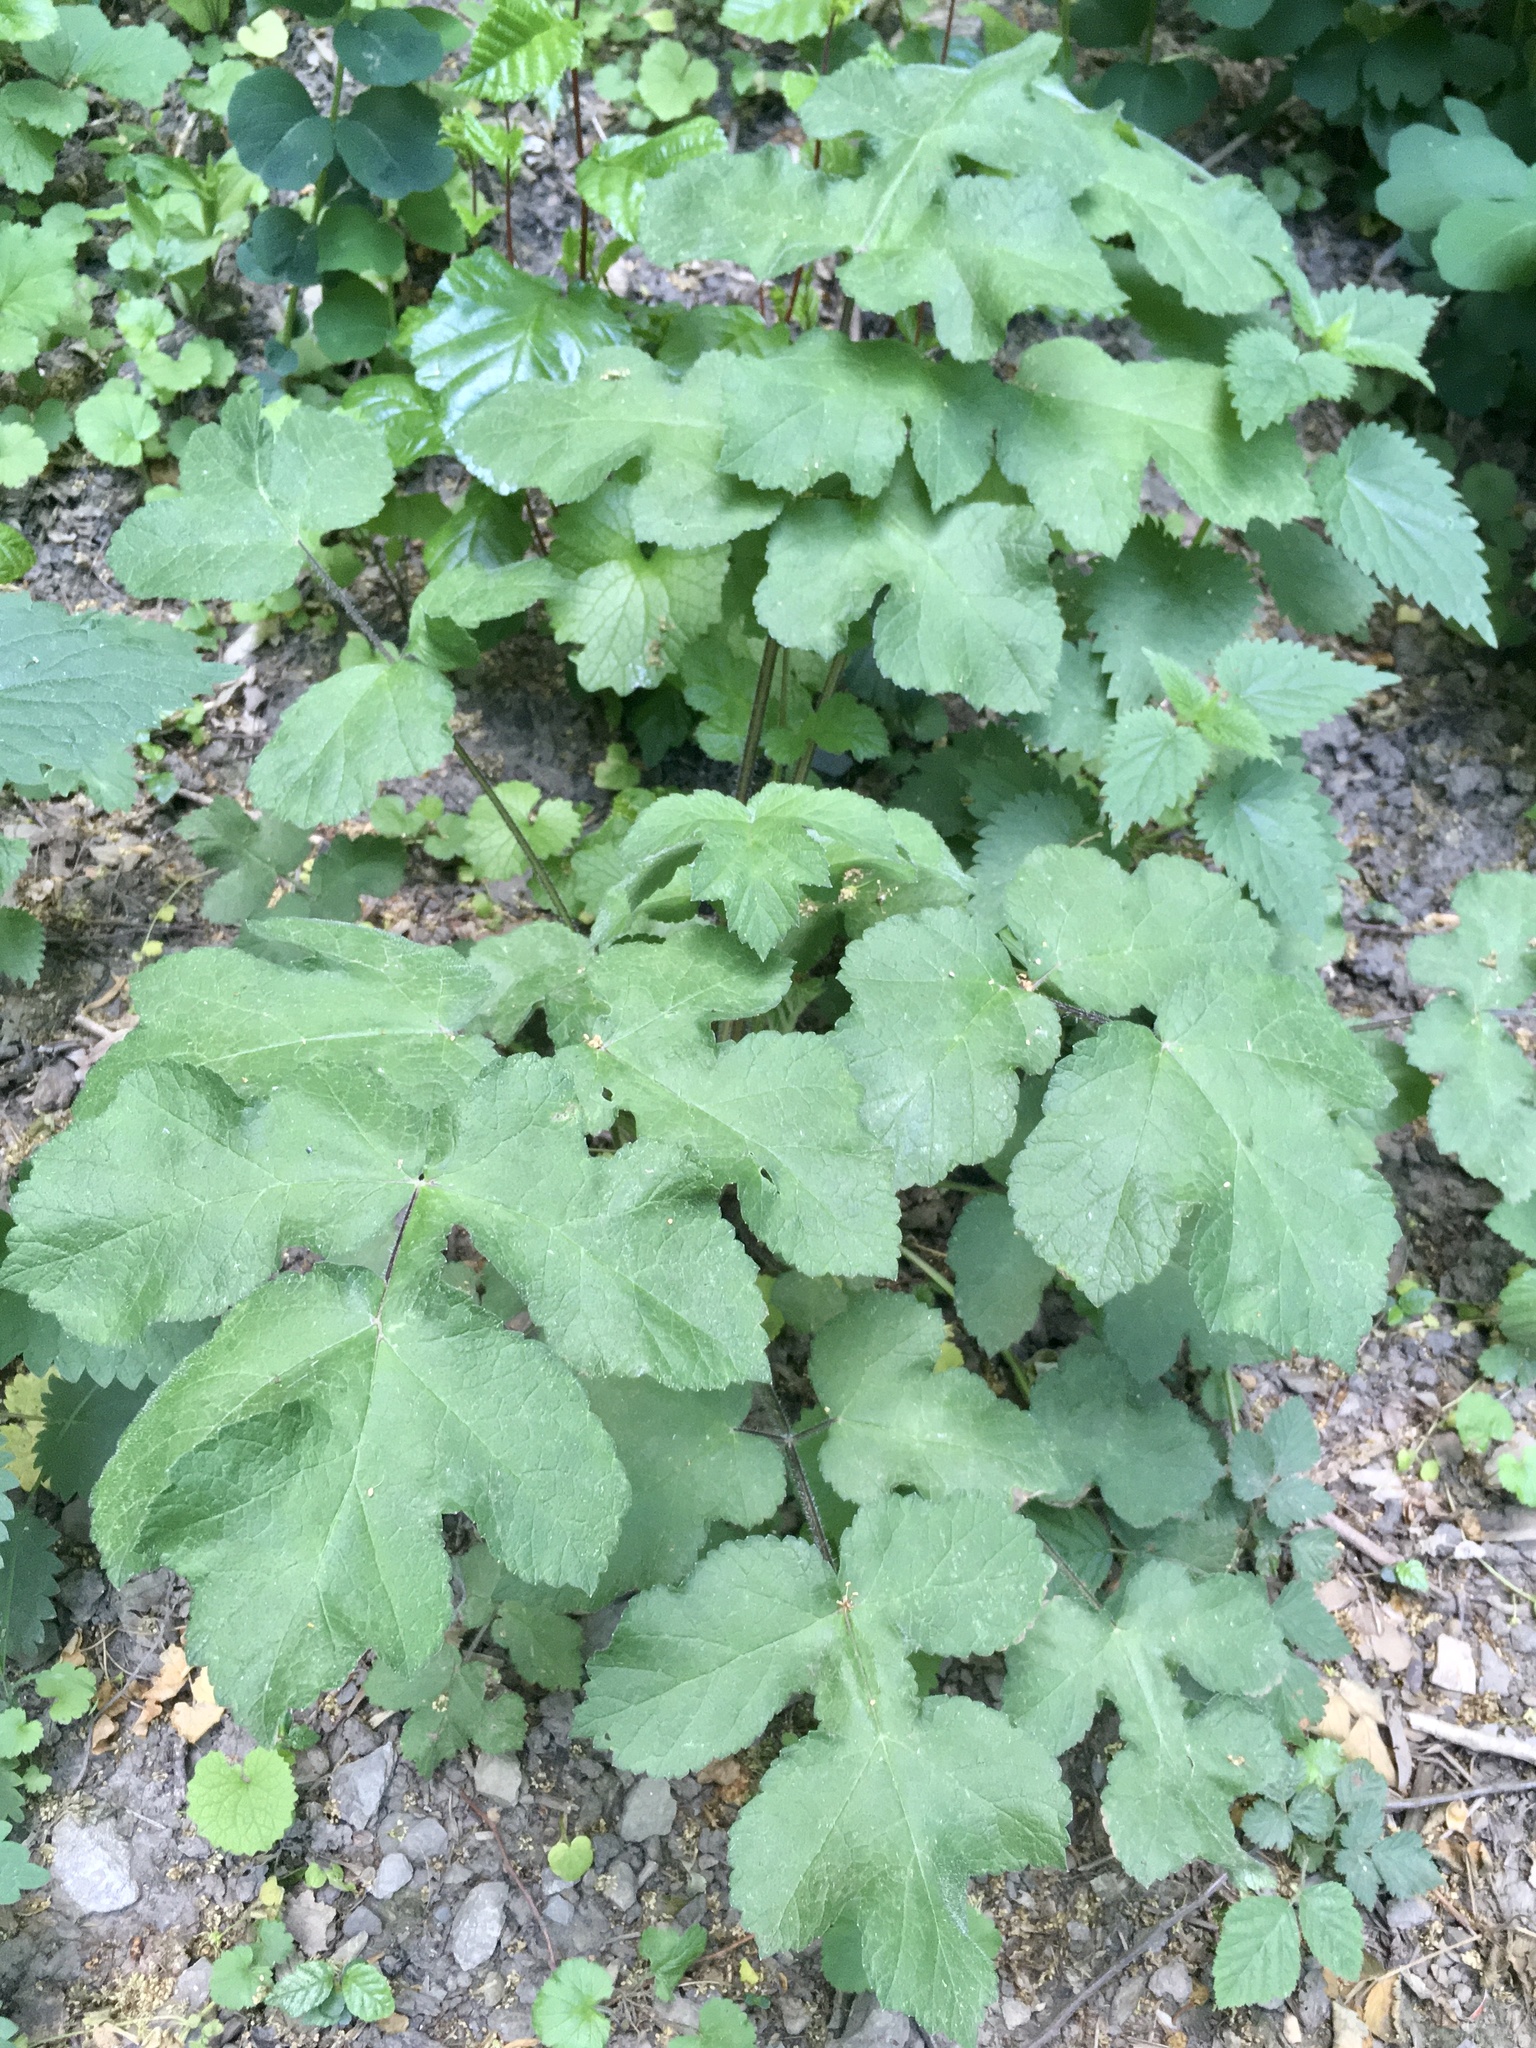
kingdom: Plantae
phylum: Tracheophyta
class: Magnoliopsida
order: Apiales
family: Apiaceae
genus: Heracleum
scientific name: Heracleum sphondylium
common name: Hogweed
